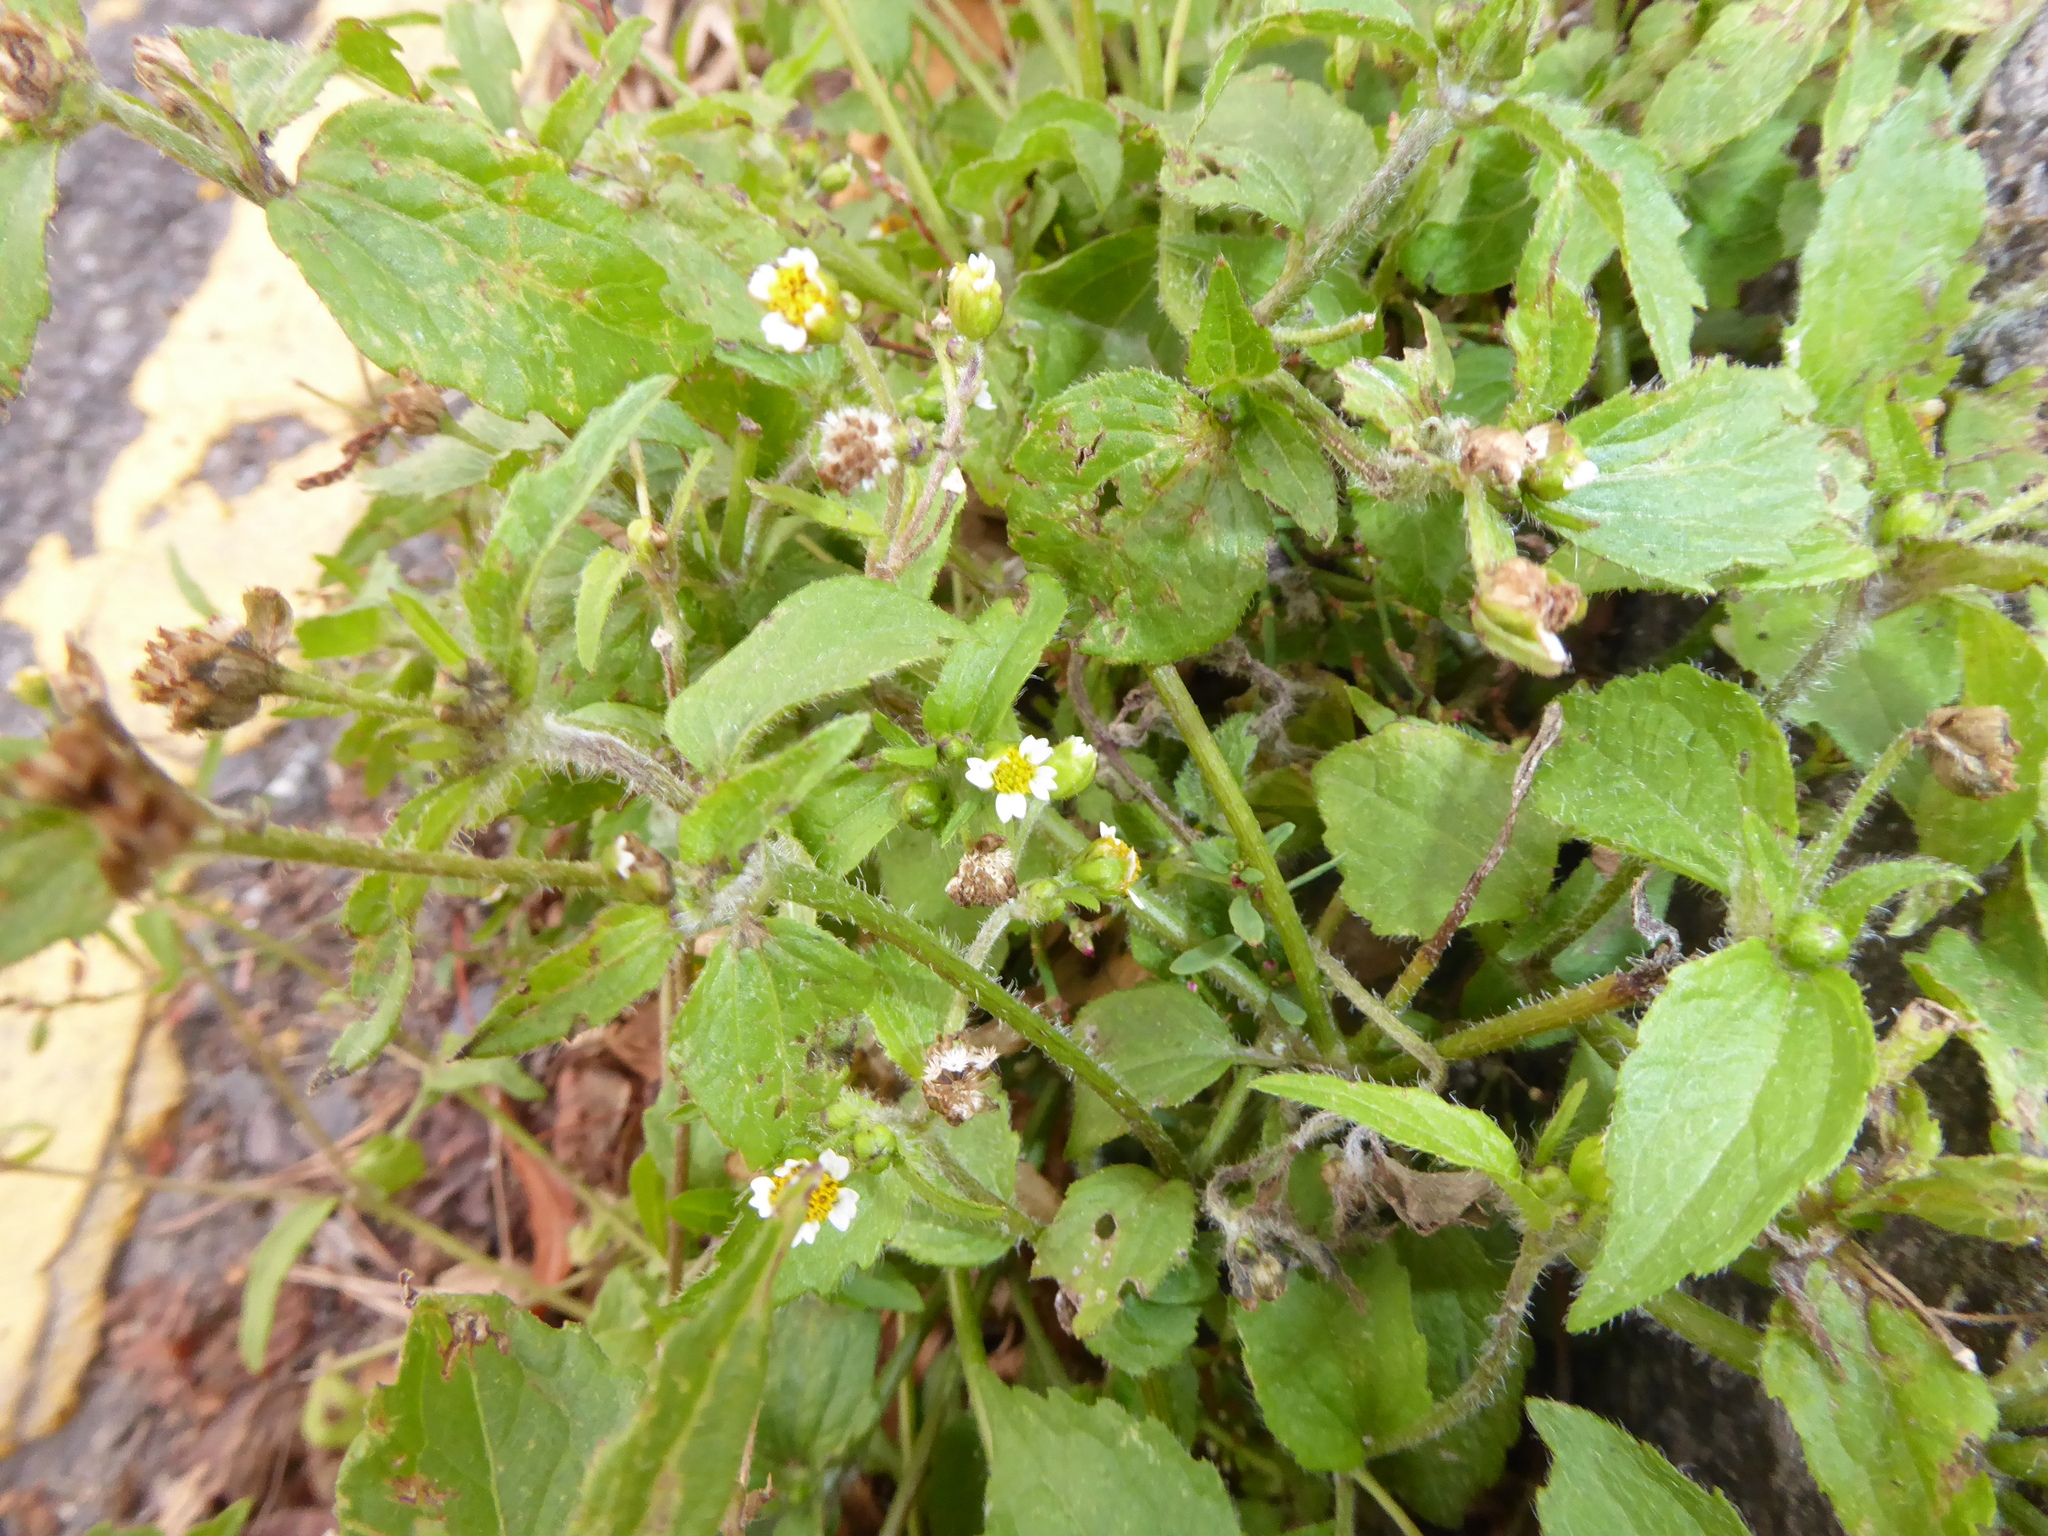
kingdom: Plantae
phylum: Tracheophyta
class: Magnoliopsida
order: Asterales
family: Asteraceae
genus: Galinsoga
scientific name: Galinsoga quadriradiata
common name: Shaggy soldier
